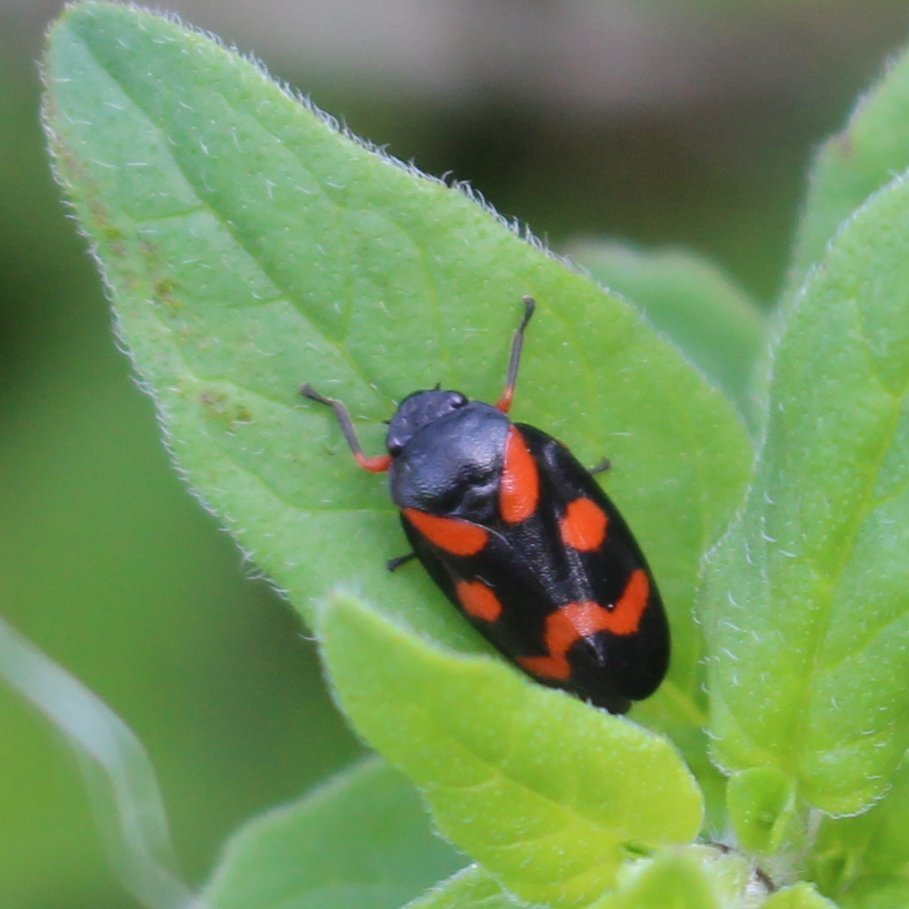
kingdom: Animalia
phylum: Arthropoda
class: Insecta
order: Hemiptera
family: Cercopidae
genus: Cercopis
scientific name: Cercopis intermedia
